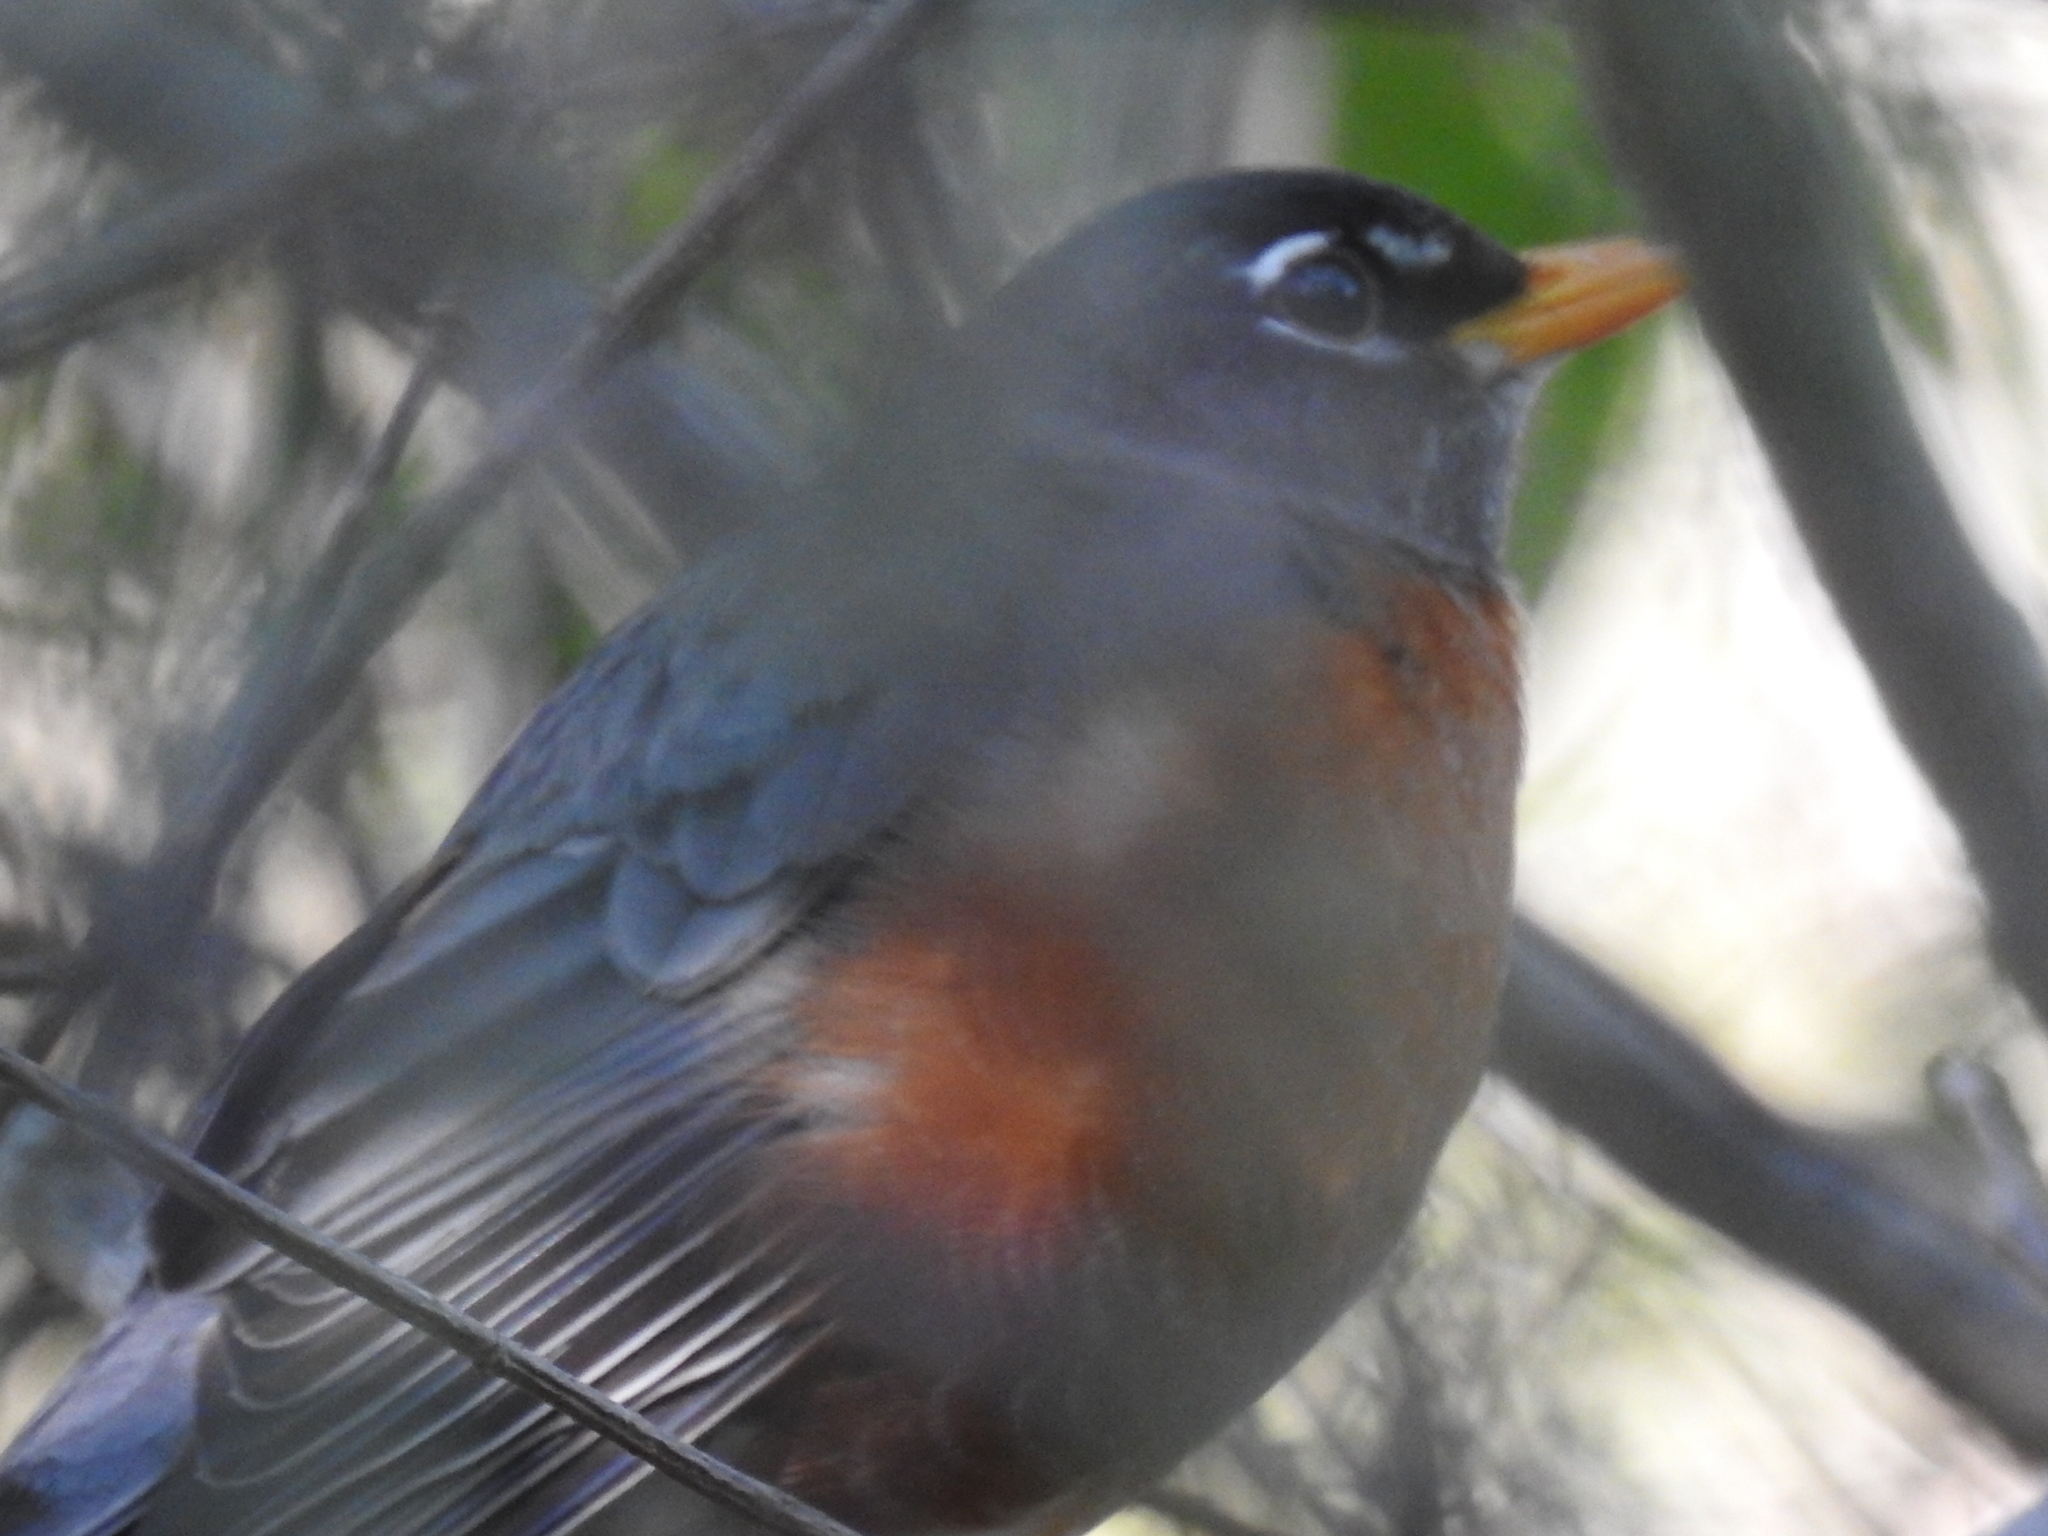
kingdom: Animalia
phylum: Chordata
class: Aves
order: Passeriformes
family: Turdidae
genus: Turdus
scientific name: Turdus migratorius
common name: American robin
